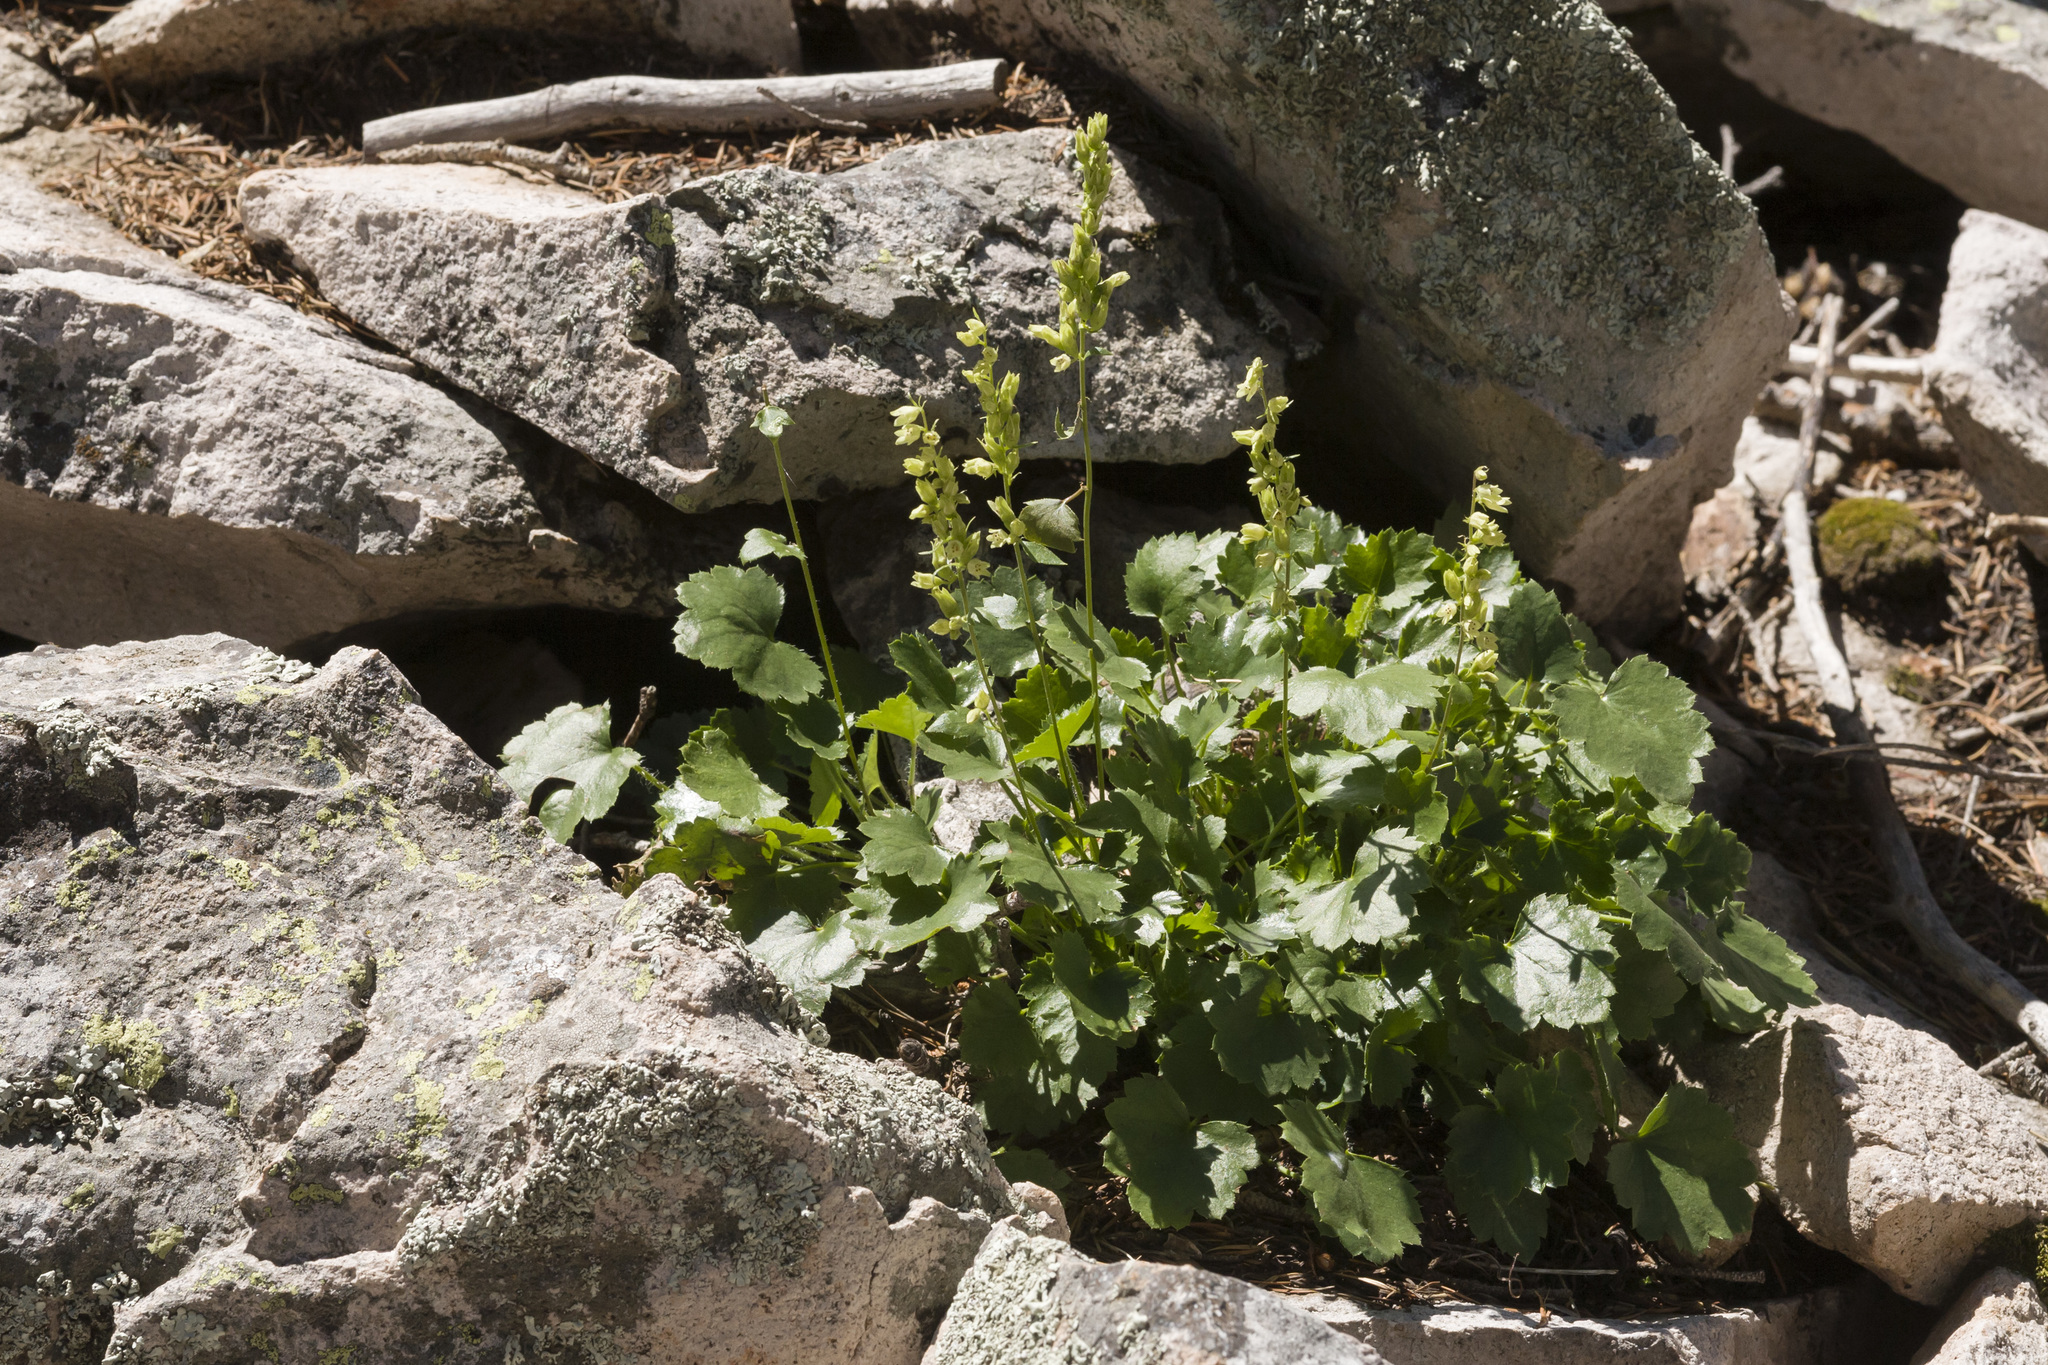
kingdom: Plantae
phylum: Tracheophyta
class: Magnoliopsida
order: Saxifragales
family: Saxifragaceae
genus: Heuchera
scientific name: Heuchera woodsiaphila
